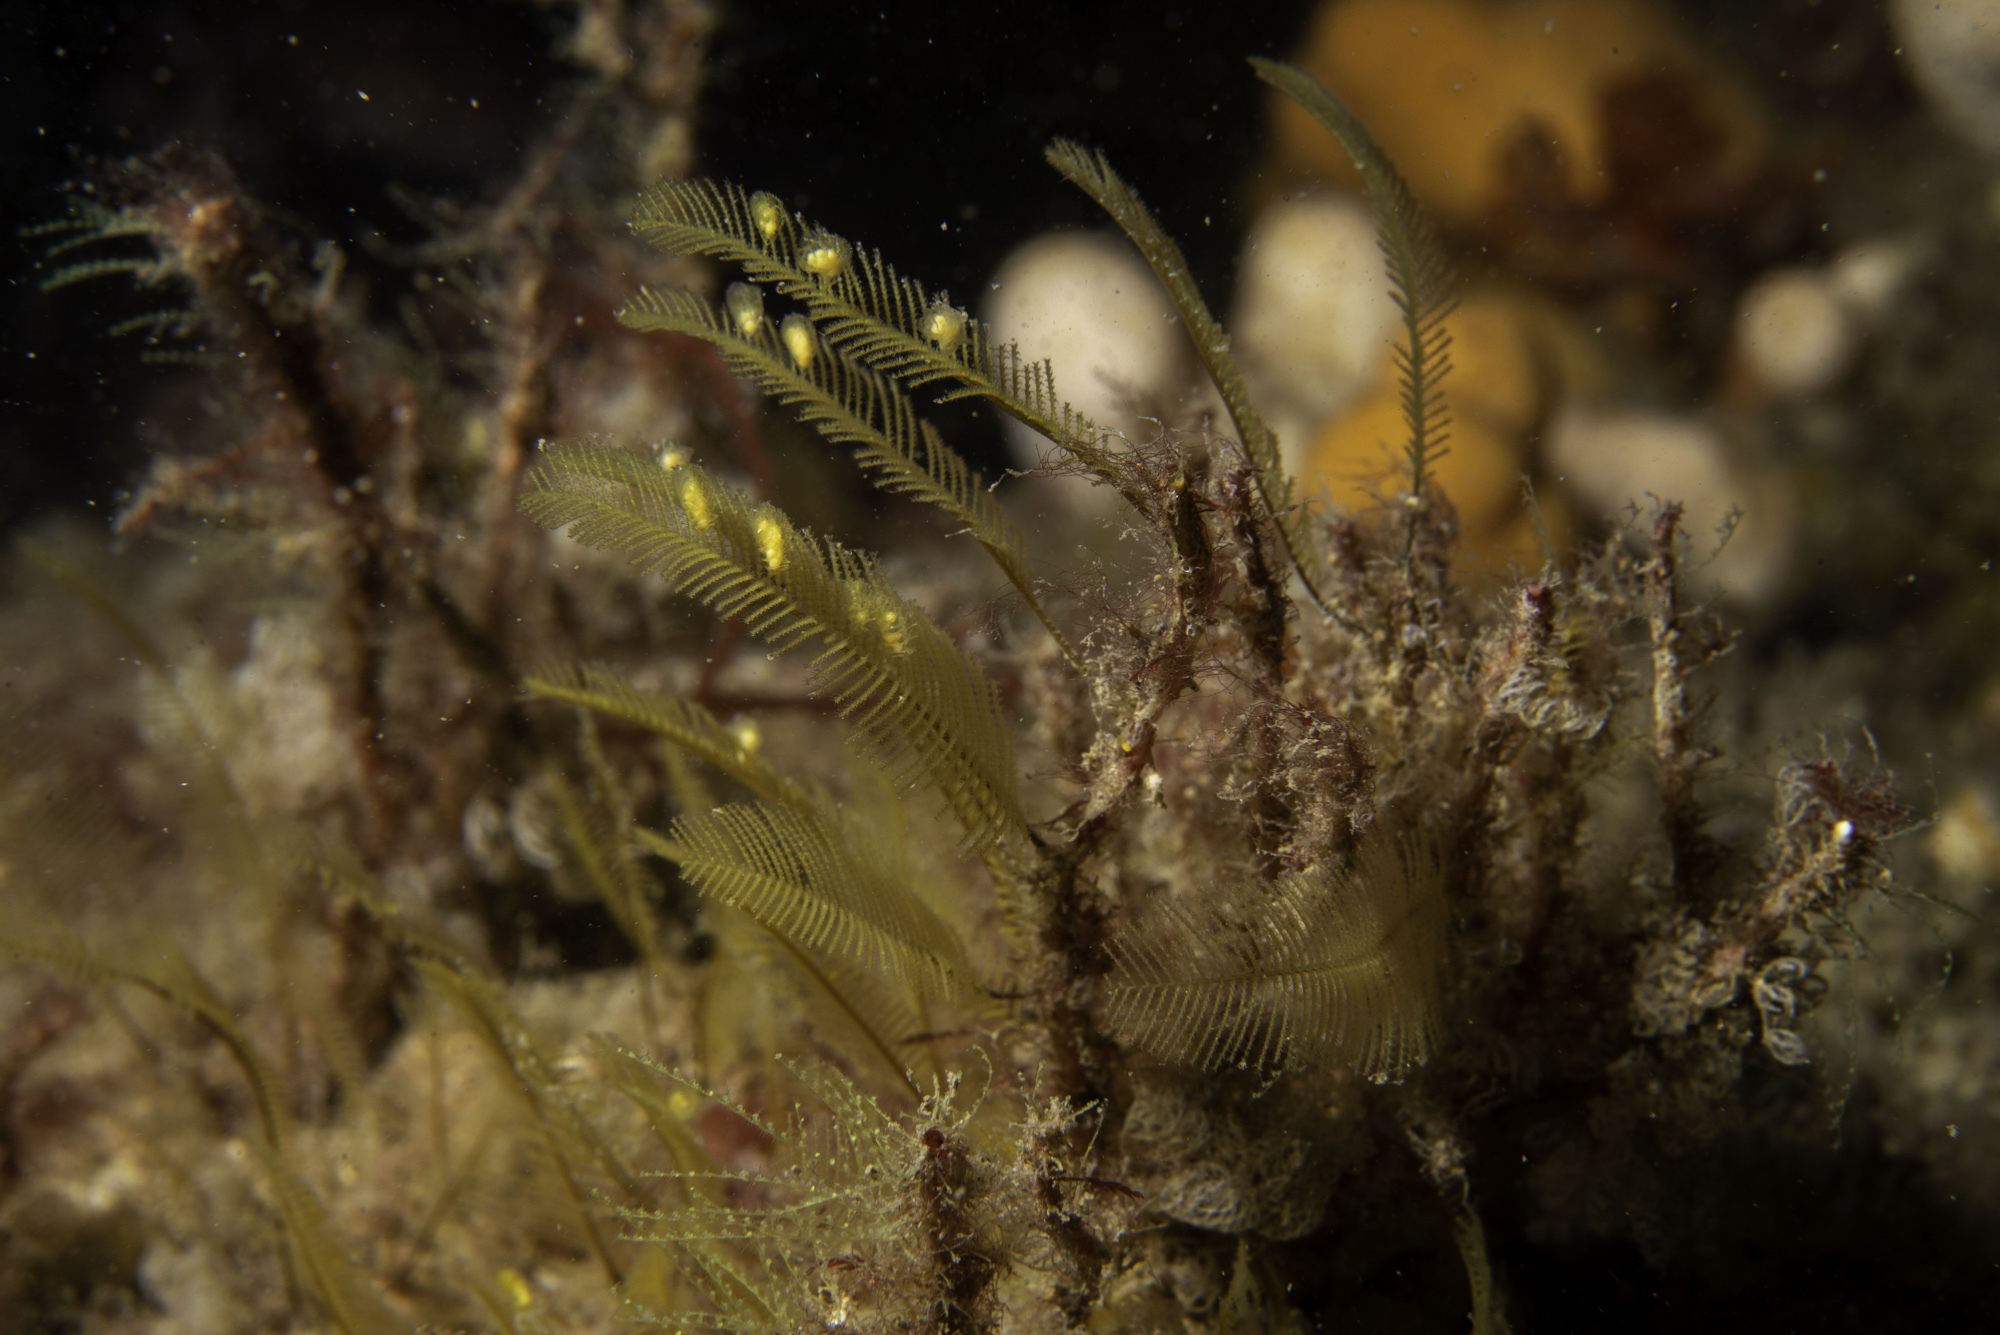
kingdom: Animalia
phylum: Cnidaria
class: Hydrozoa
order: Leptothecata
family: Aglaopheniidae
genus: Aglaophenia
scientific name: Aglaophenia tubulifera
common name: Plume hydroid
